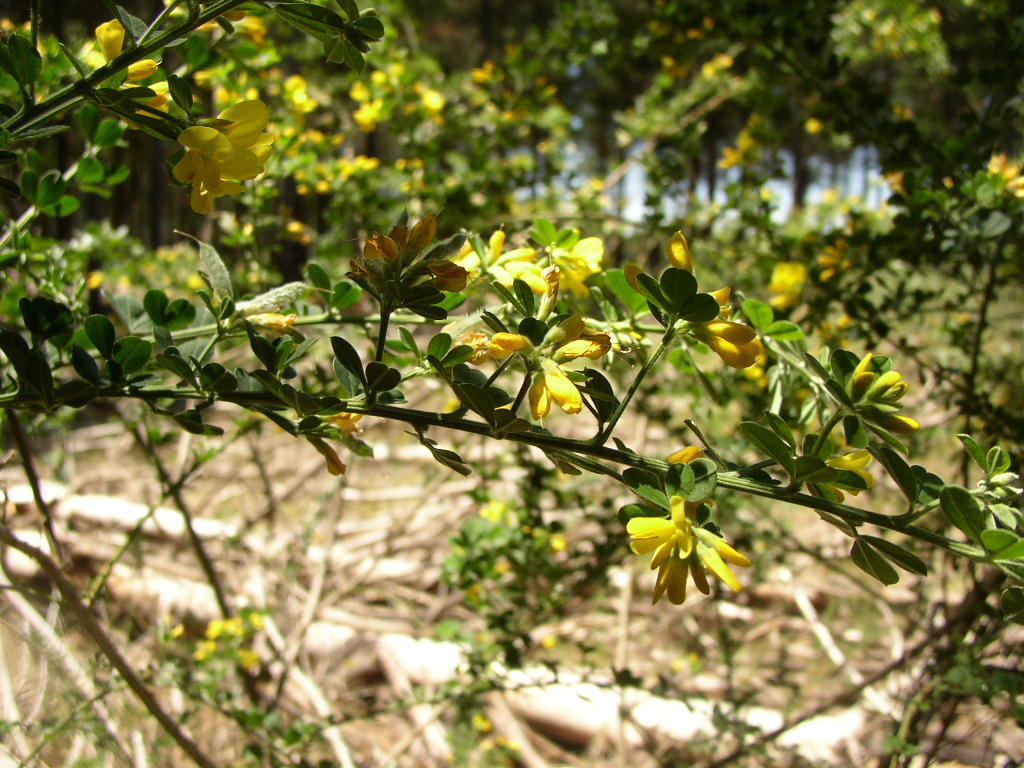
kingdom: Plantae
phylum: Tracheophyta
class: Magnoliopsida
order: Fabales
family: Fabaceae
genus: Genista
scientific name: Genista monspessulana
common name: Montpellier broom
